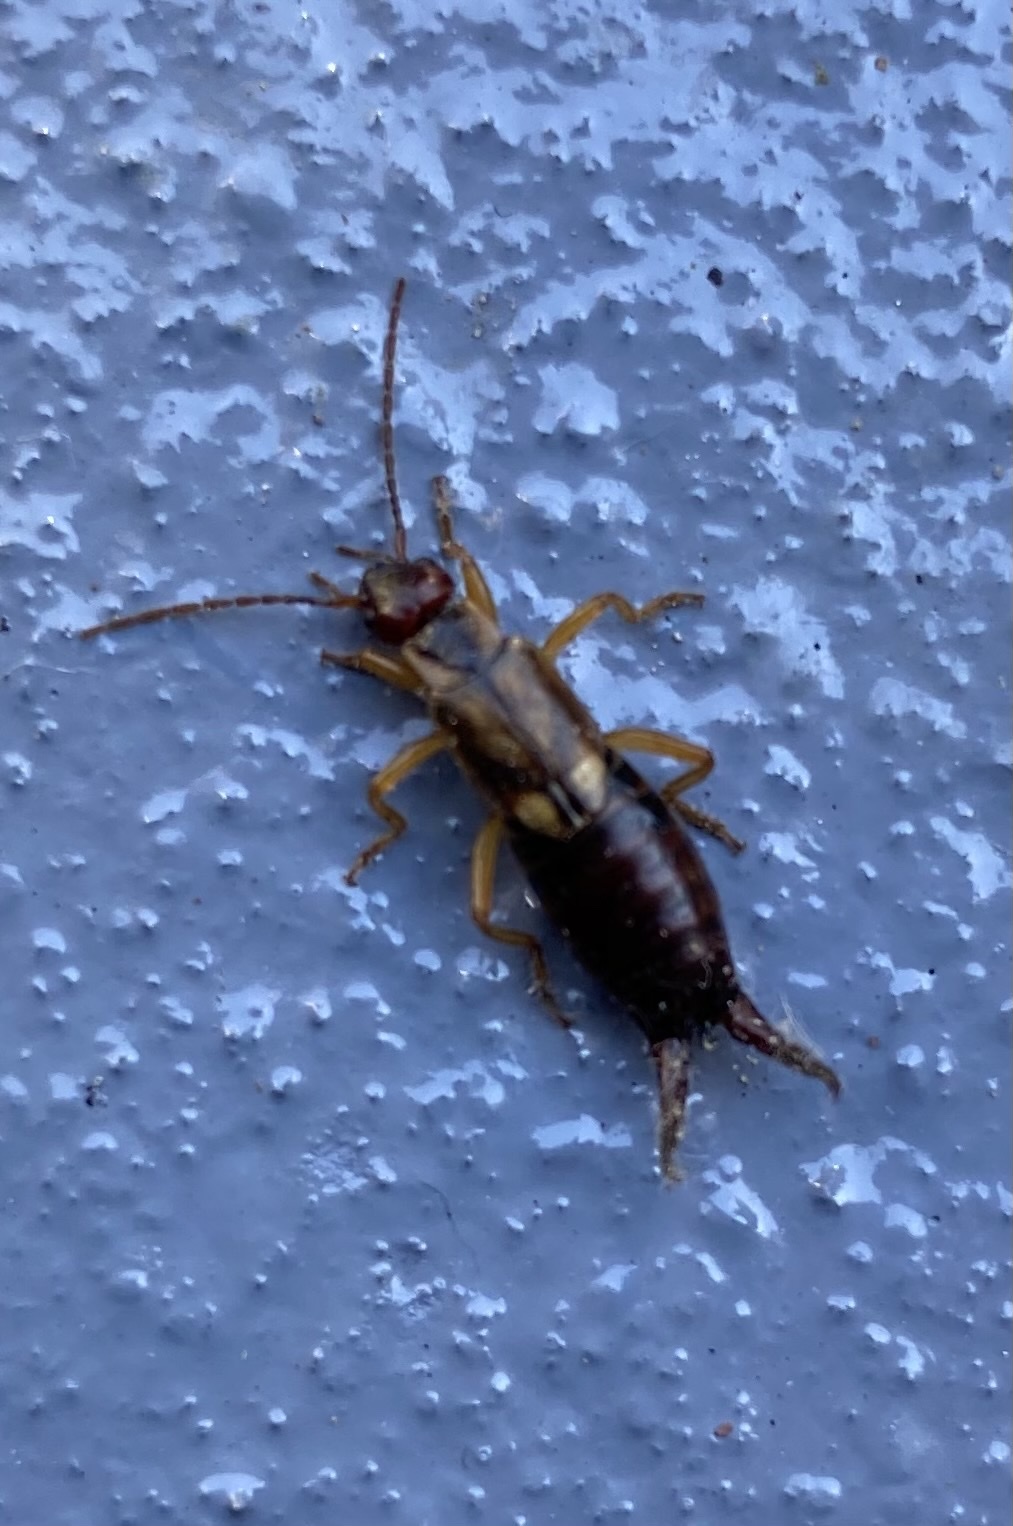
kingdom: Animalia
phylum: Arthropoda
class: Insecta
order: Dermaptera
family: Forficulidae
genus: Forficula
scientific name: Forficula
